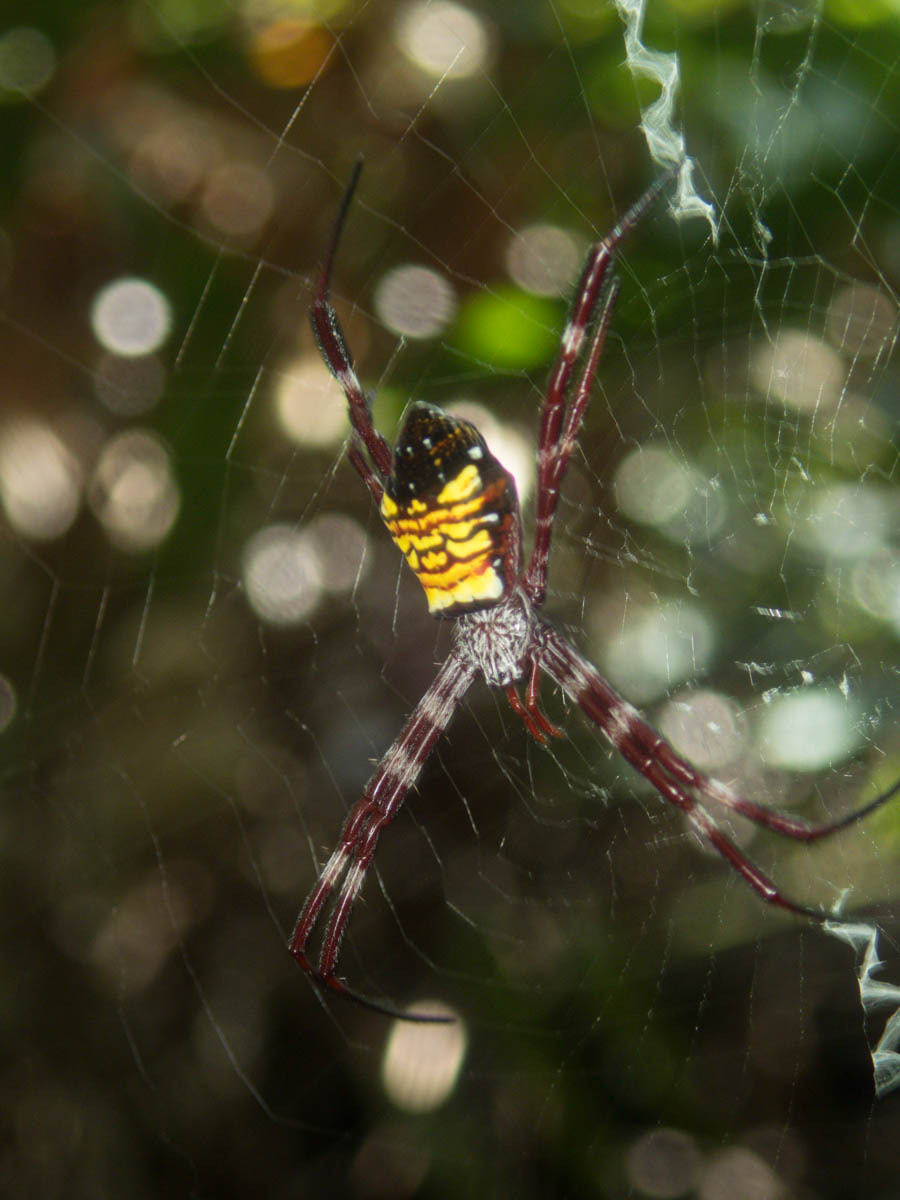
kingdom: Animalia
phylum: Arthropoda
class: Arachnida
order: Araneae
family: Araneidae
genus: Argiope
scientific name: Argiope mangal
